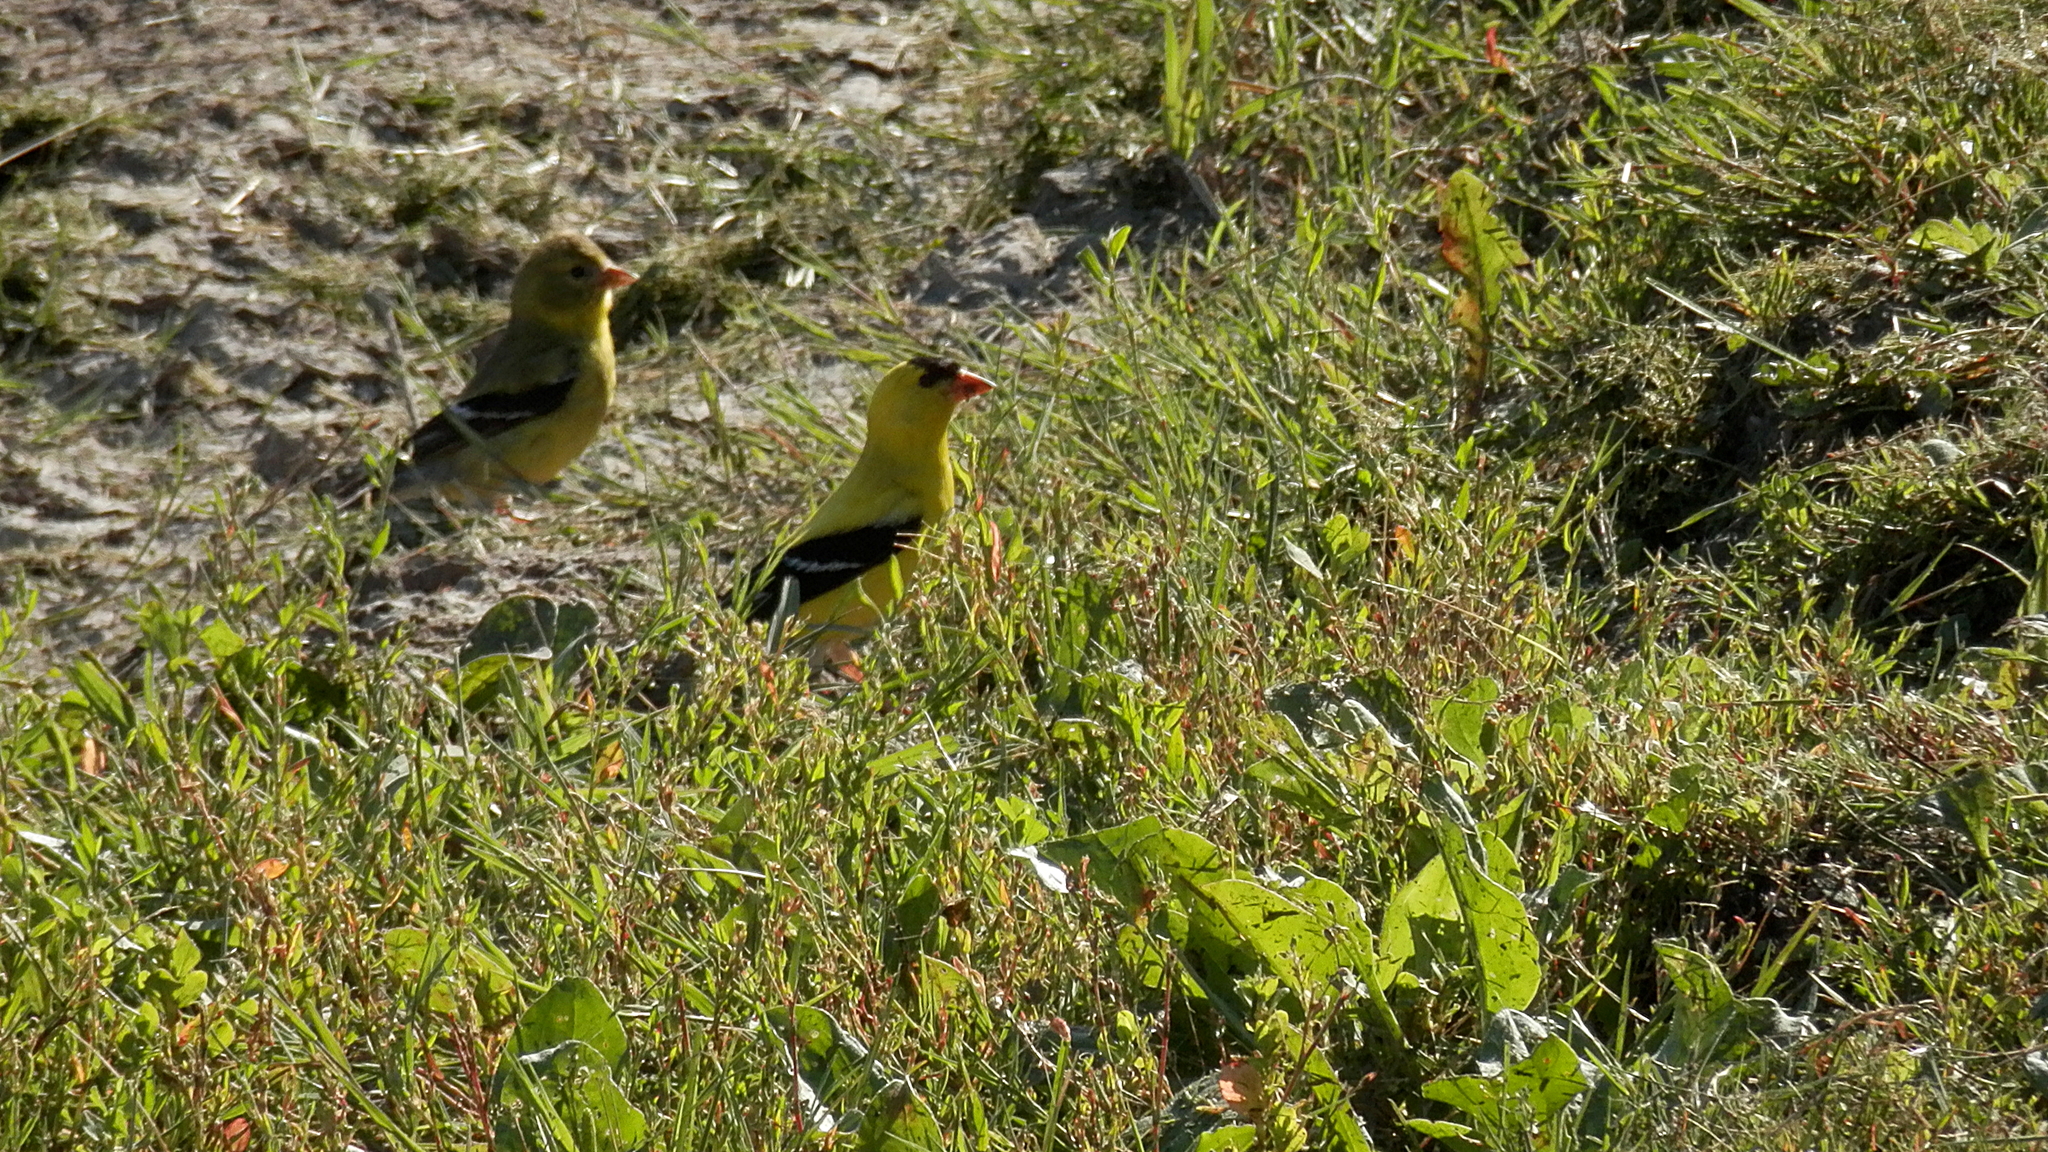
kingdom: Animalia
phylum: Chordata
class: Aves
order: Passeriformes
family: Fringillidae
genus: Spinus
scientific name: Spinus tristis
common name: American goldfinch
